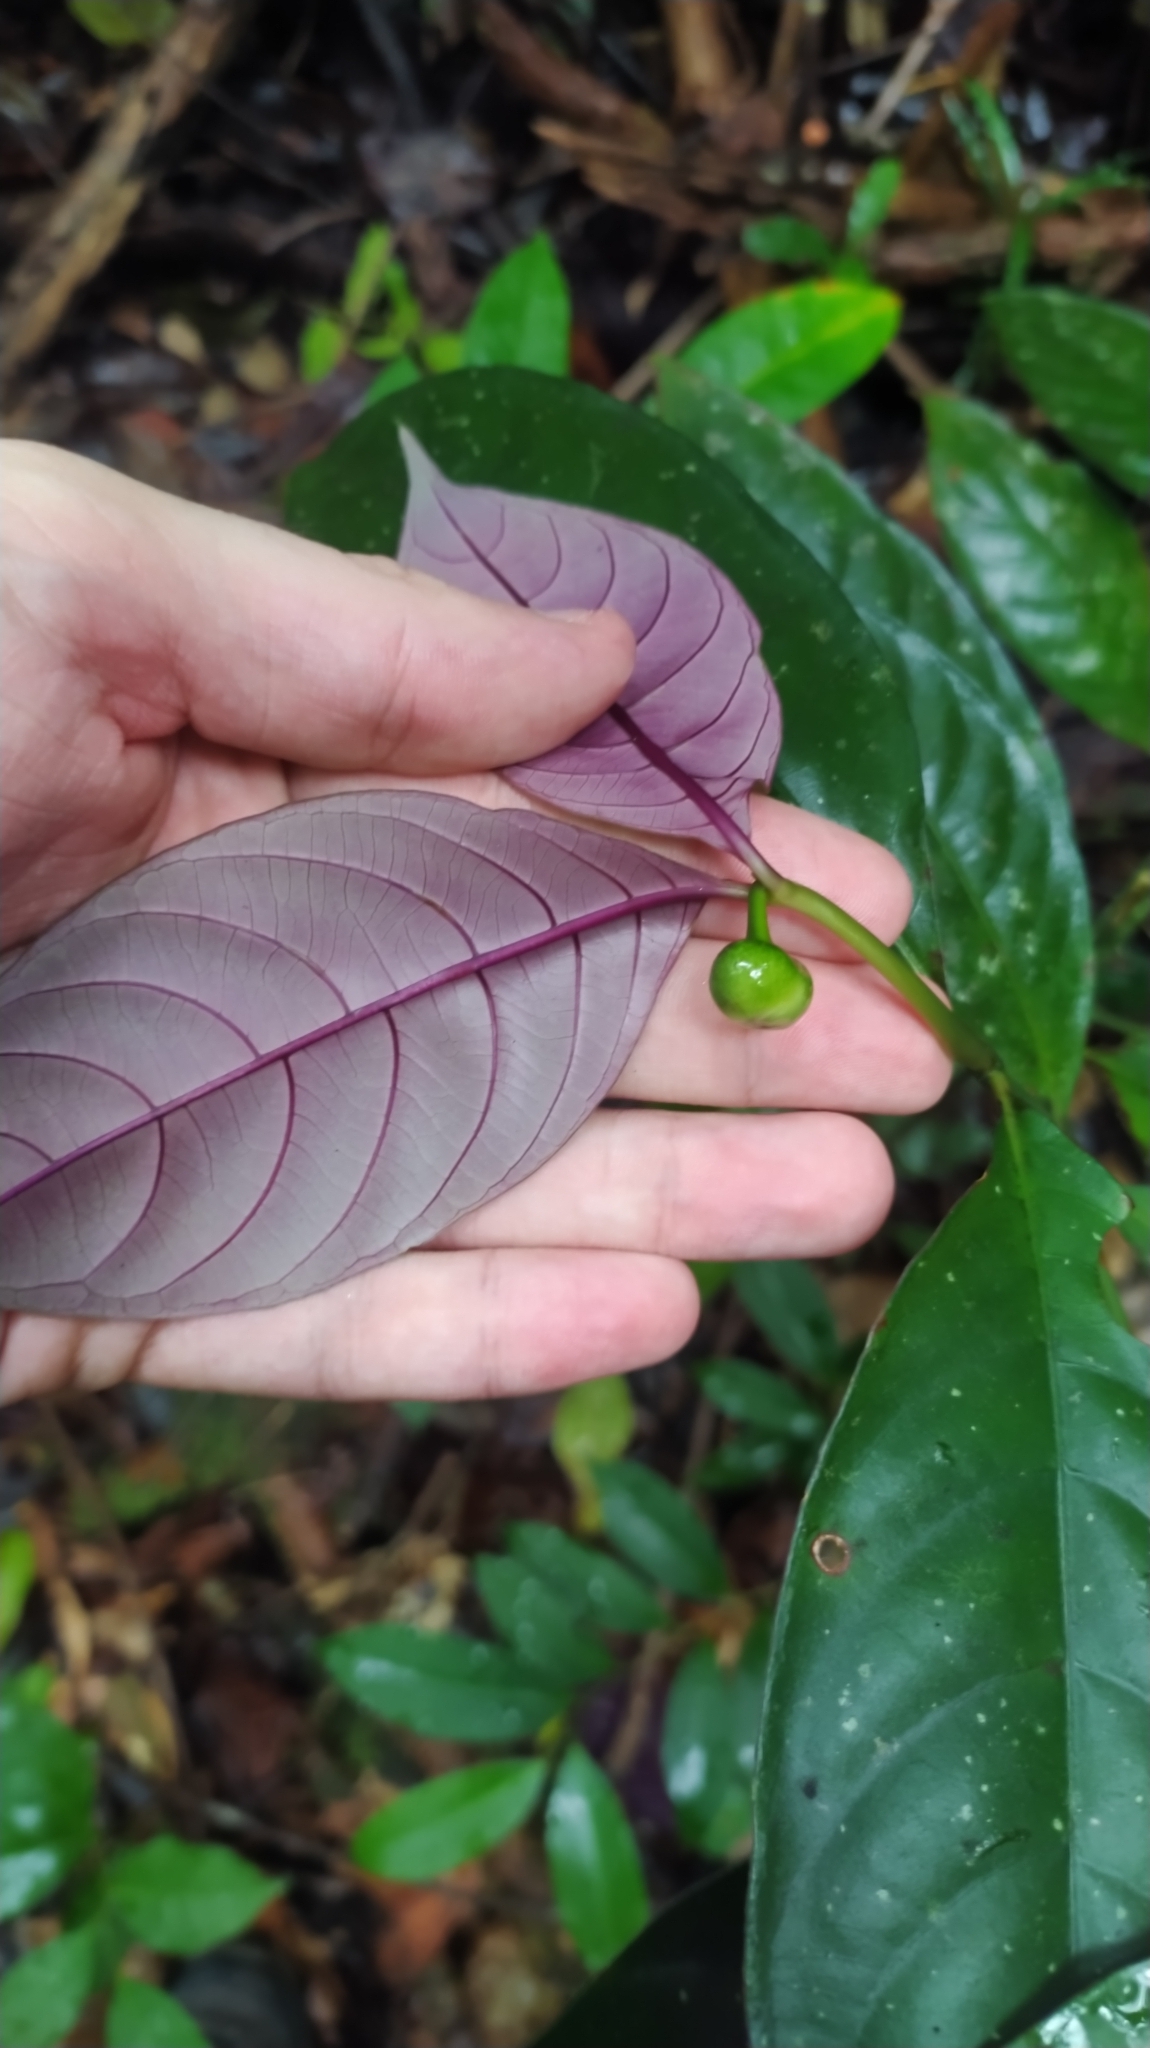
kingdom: Plantae
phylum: Tracheophyta
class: Magnoliopsida
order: Gentianales
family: Rubiaceae
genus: Palicourea
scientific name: Palicourea dichotoma
